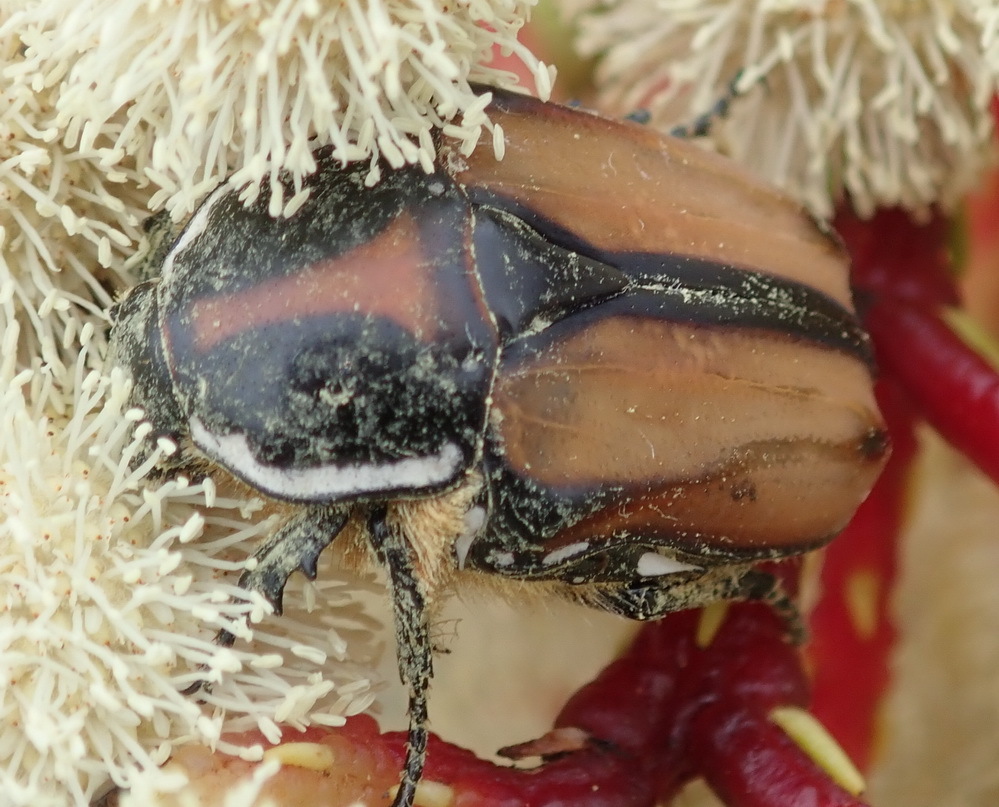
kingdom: Animalia
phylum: Arthropoda
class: Insecta
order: Coleoptera
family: Scarabaeidae
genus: Trichostetha
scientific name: Trichostetha signata
